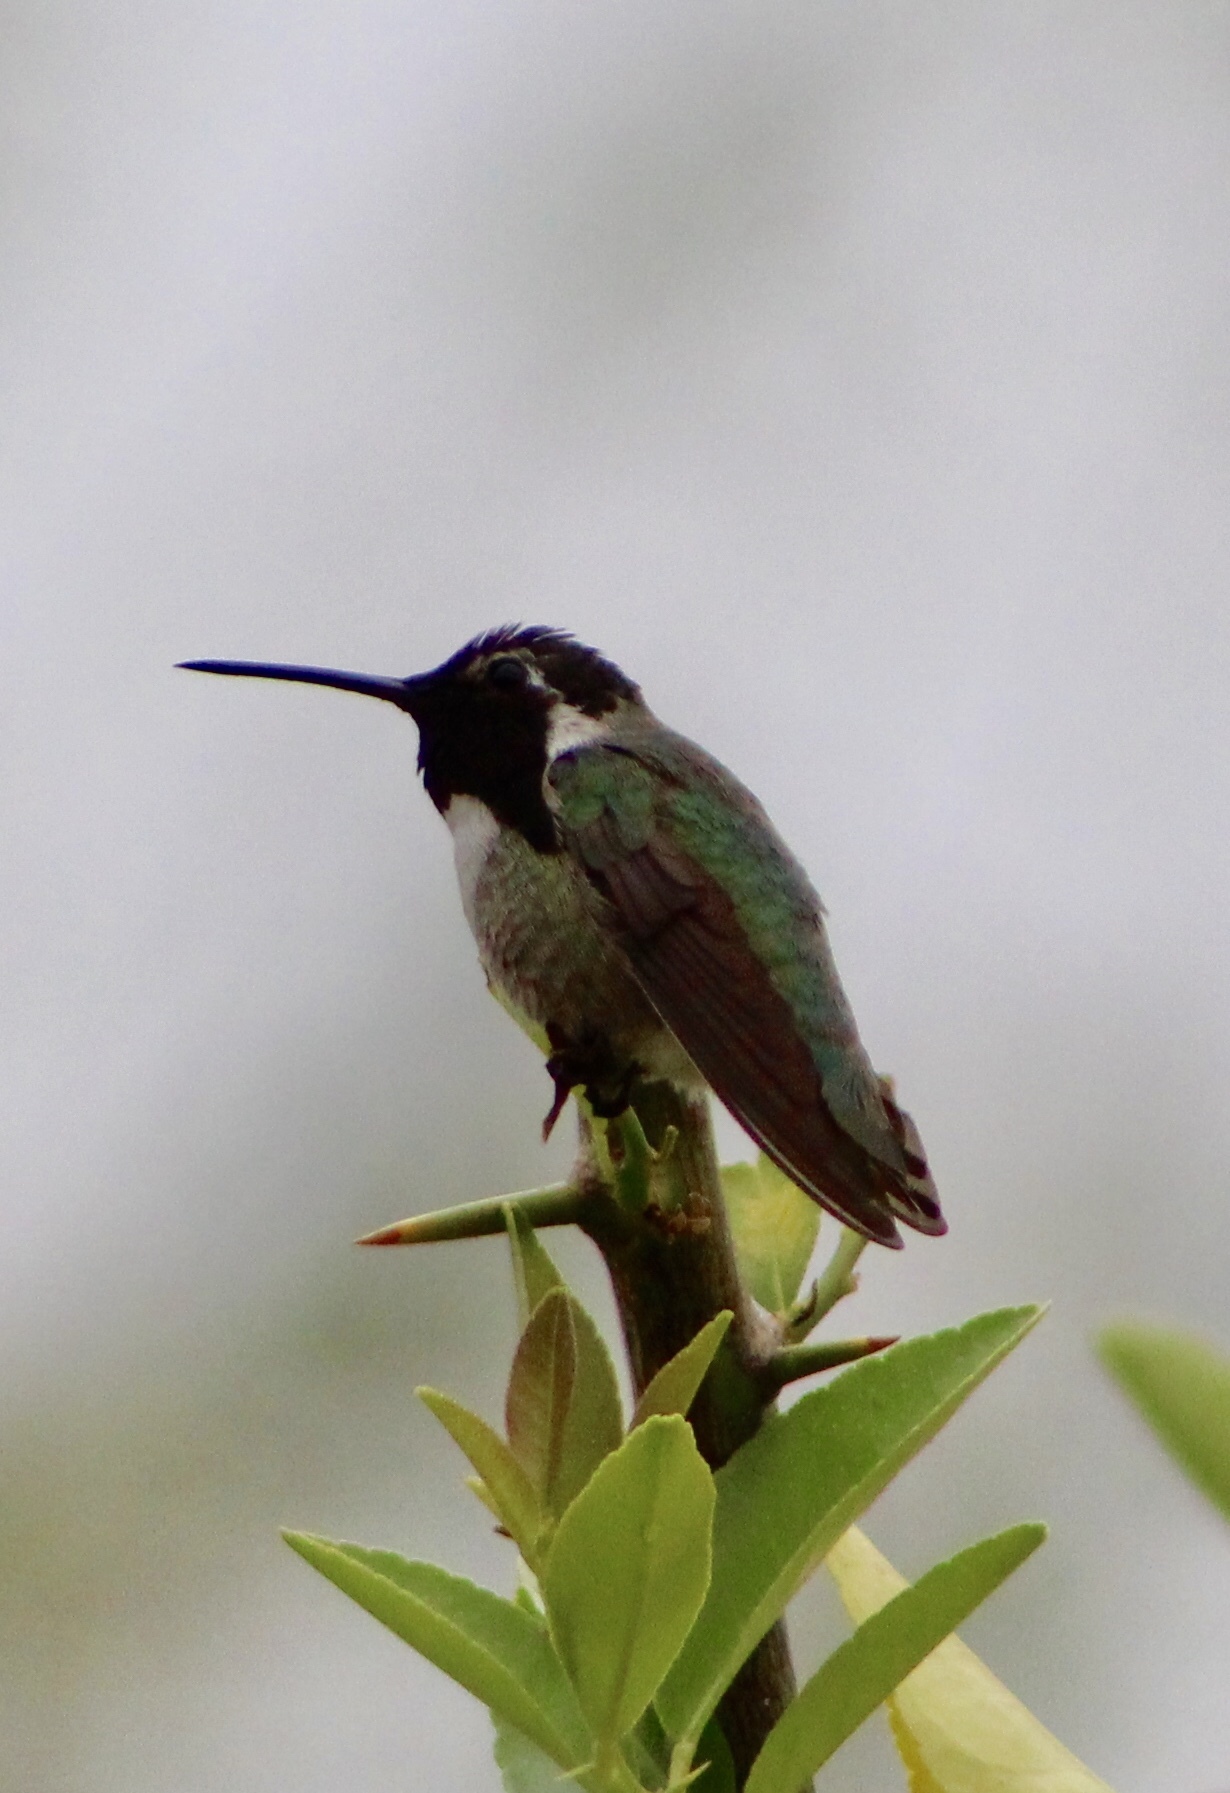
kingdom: Animalia
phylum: Chordata
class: Aves
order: Apodiformes
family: Trochilidae
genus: Calypte
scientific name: Calypte costae
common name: Costa's hummingbird
